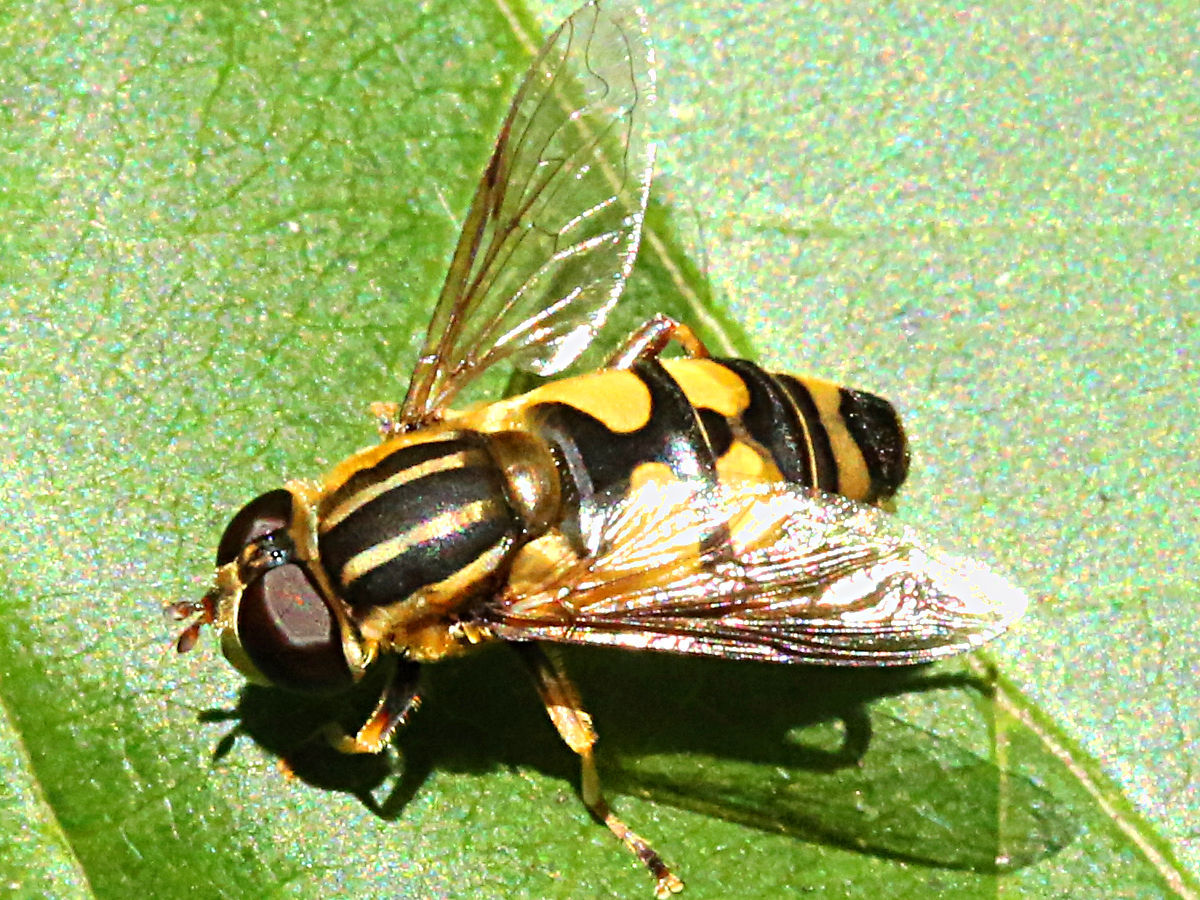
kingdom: Animalia
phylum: Arthropoda
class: Insecta
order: Diptera
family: Syrphidae
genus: Helophilus
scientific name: Helophilus fasciatus
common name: Narrow-headed marsh fly
